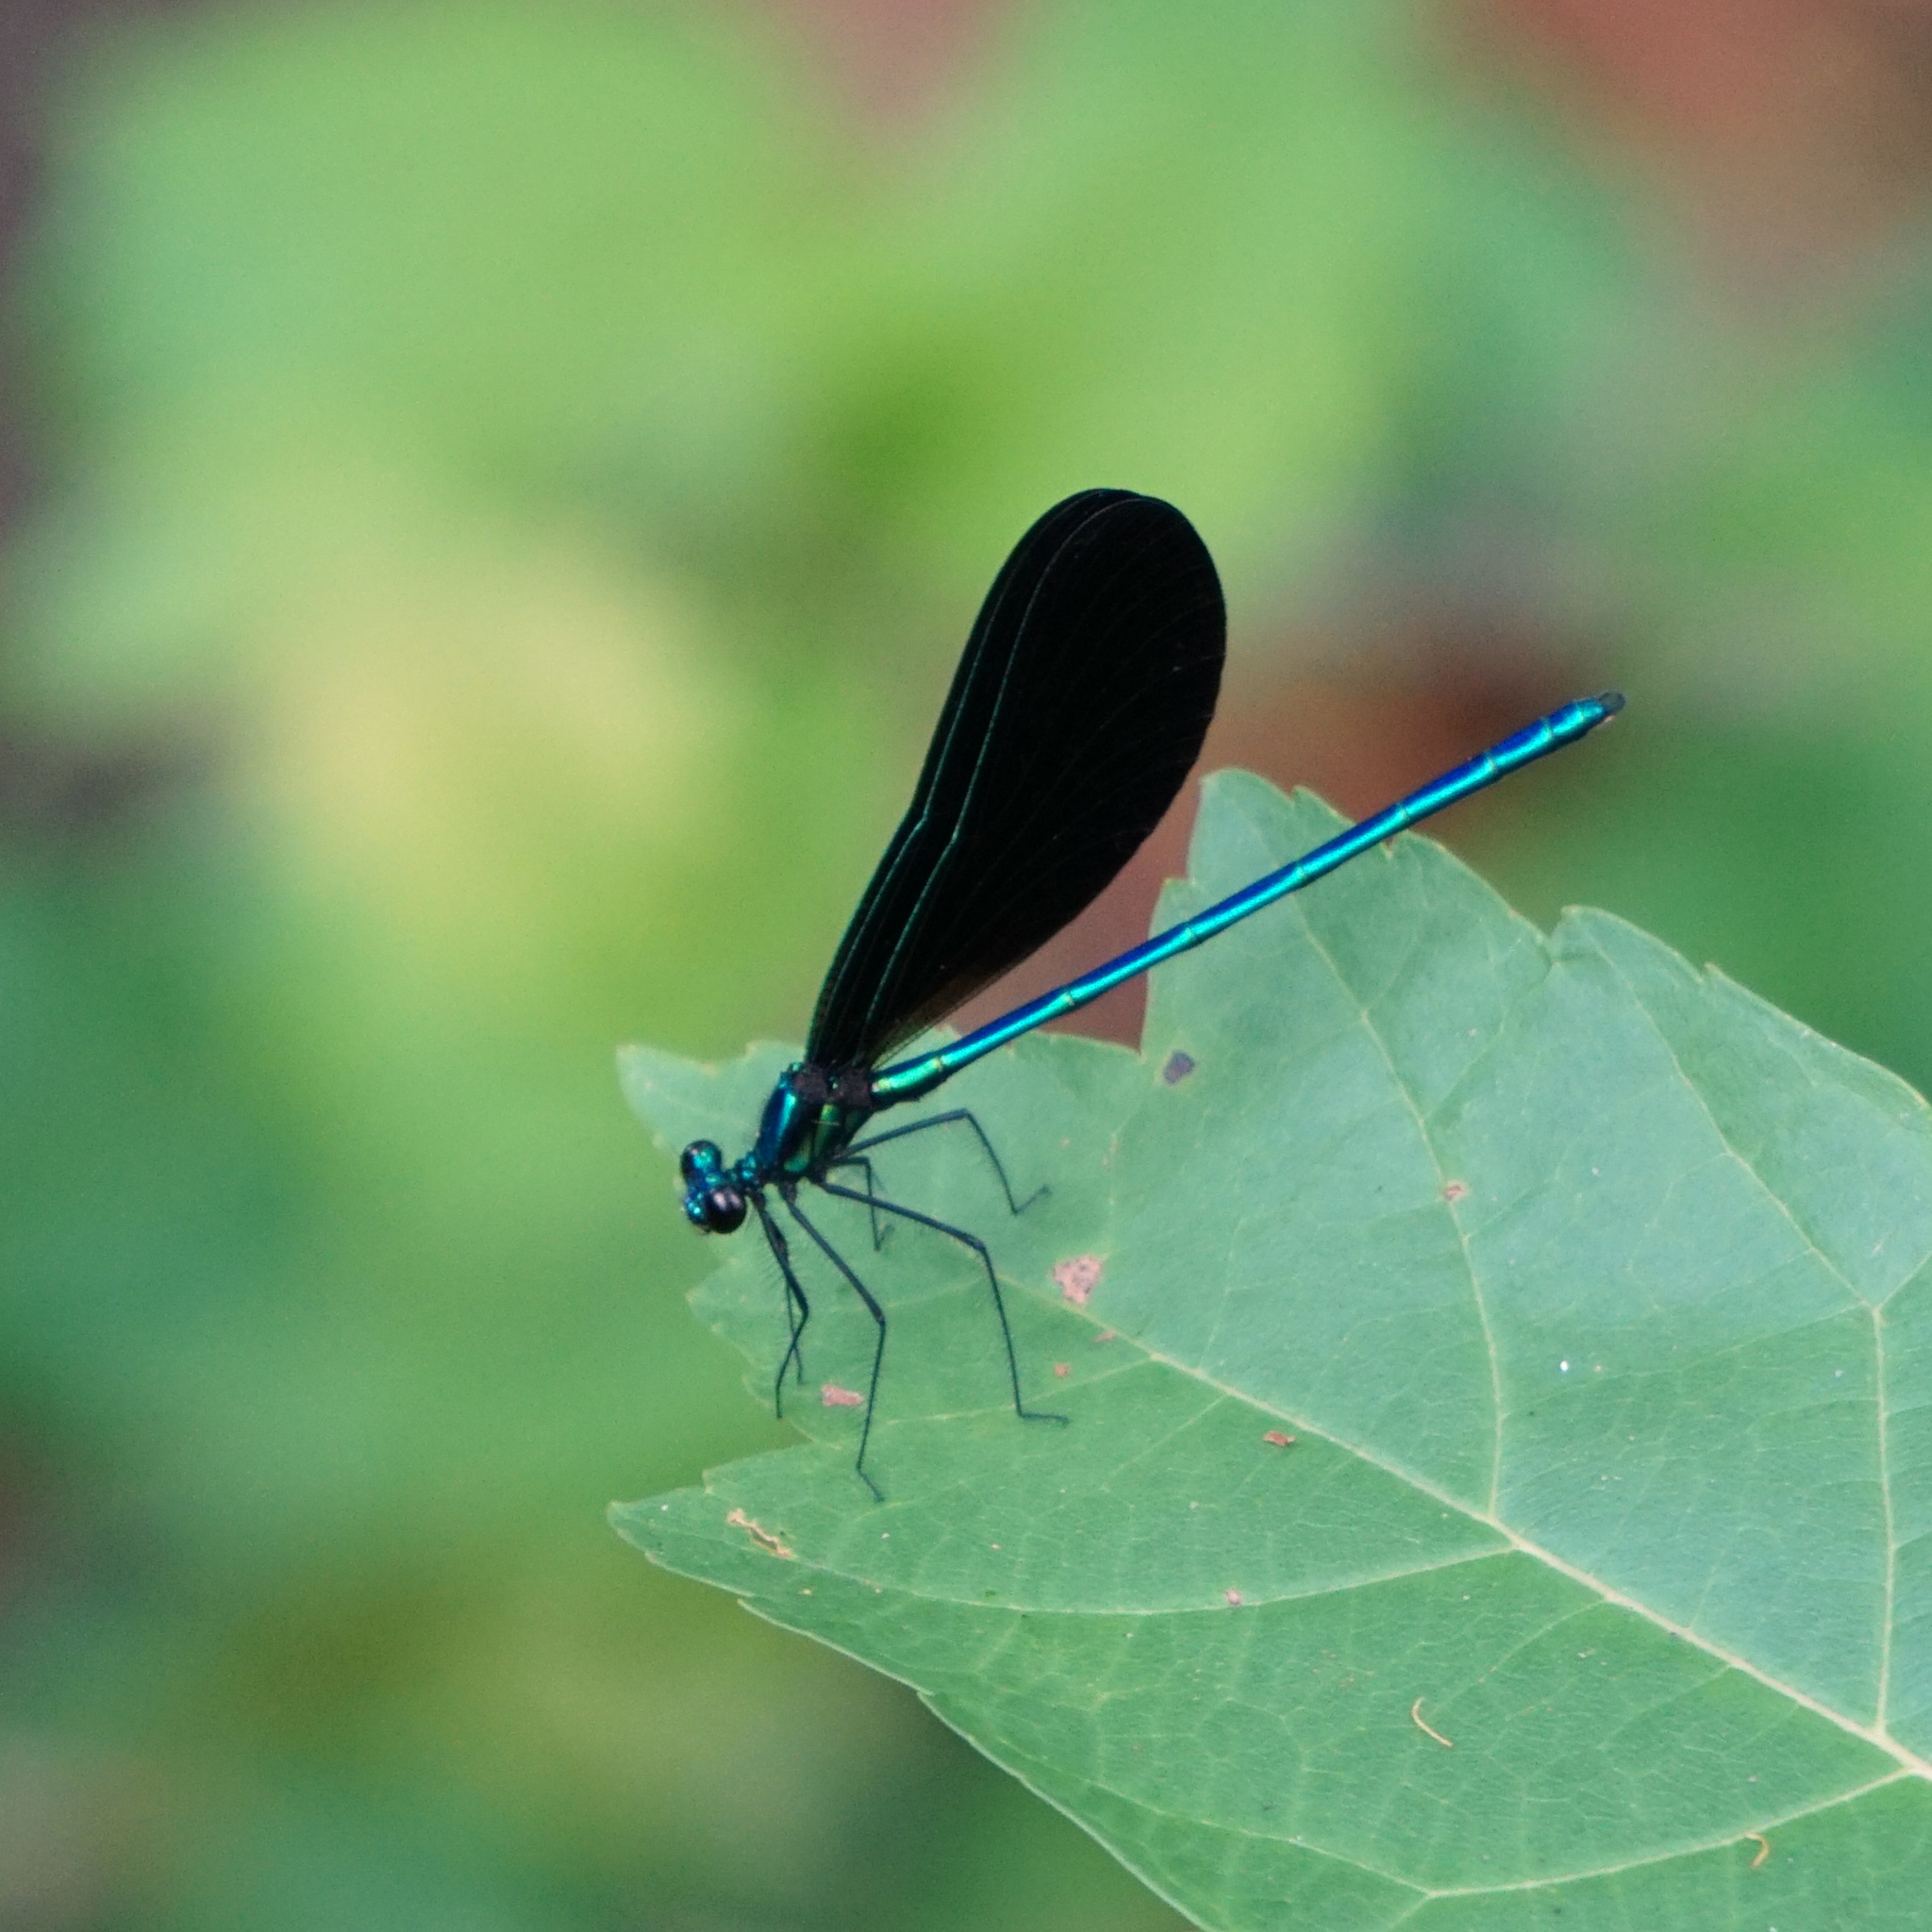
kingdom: Animalia
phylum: Arthropoda
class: Insecta
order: Odonata
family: Calopterygidae
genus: Calopteryx
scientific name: Calopteryx maculata
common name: Ebony jewelwing
